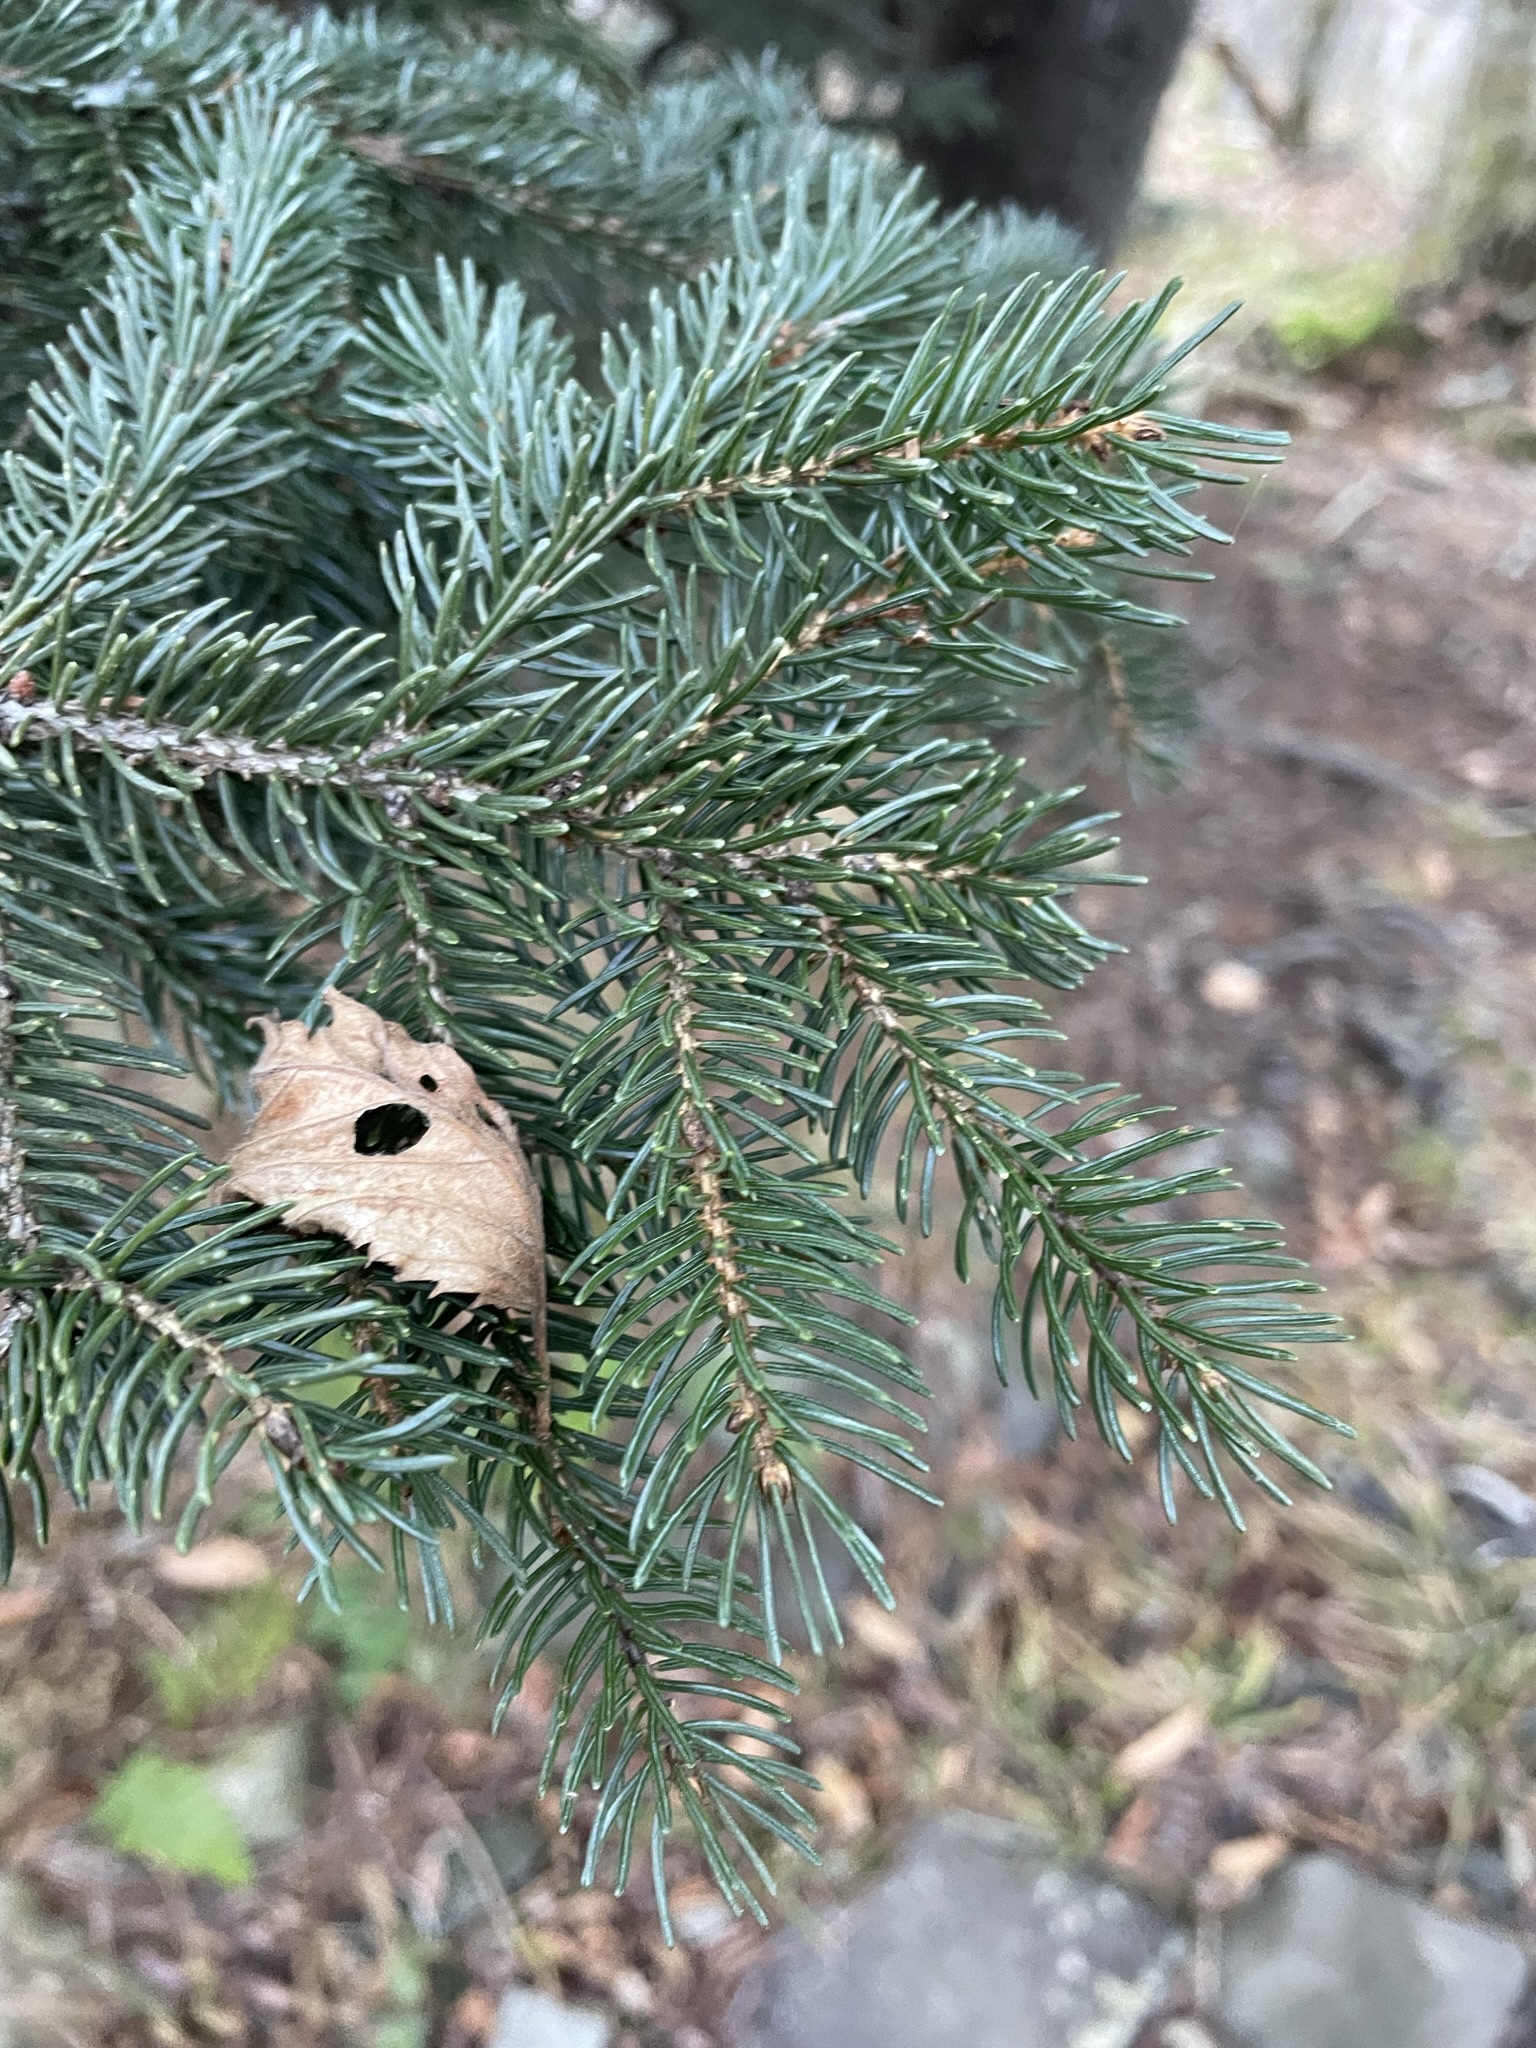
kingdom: Plantae
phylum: Tracheophyta
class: Pinopsida
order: Pinales
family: Pinaceae
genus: Picea
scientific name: Picea rubens
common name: Red spruce
